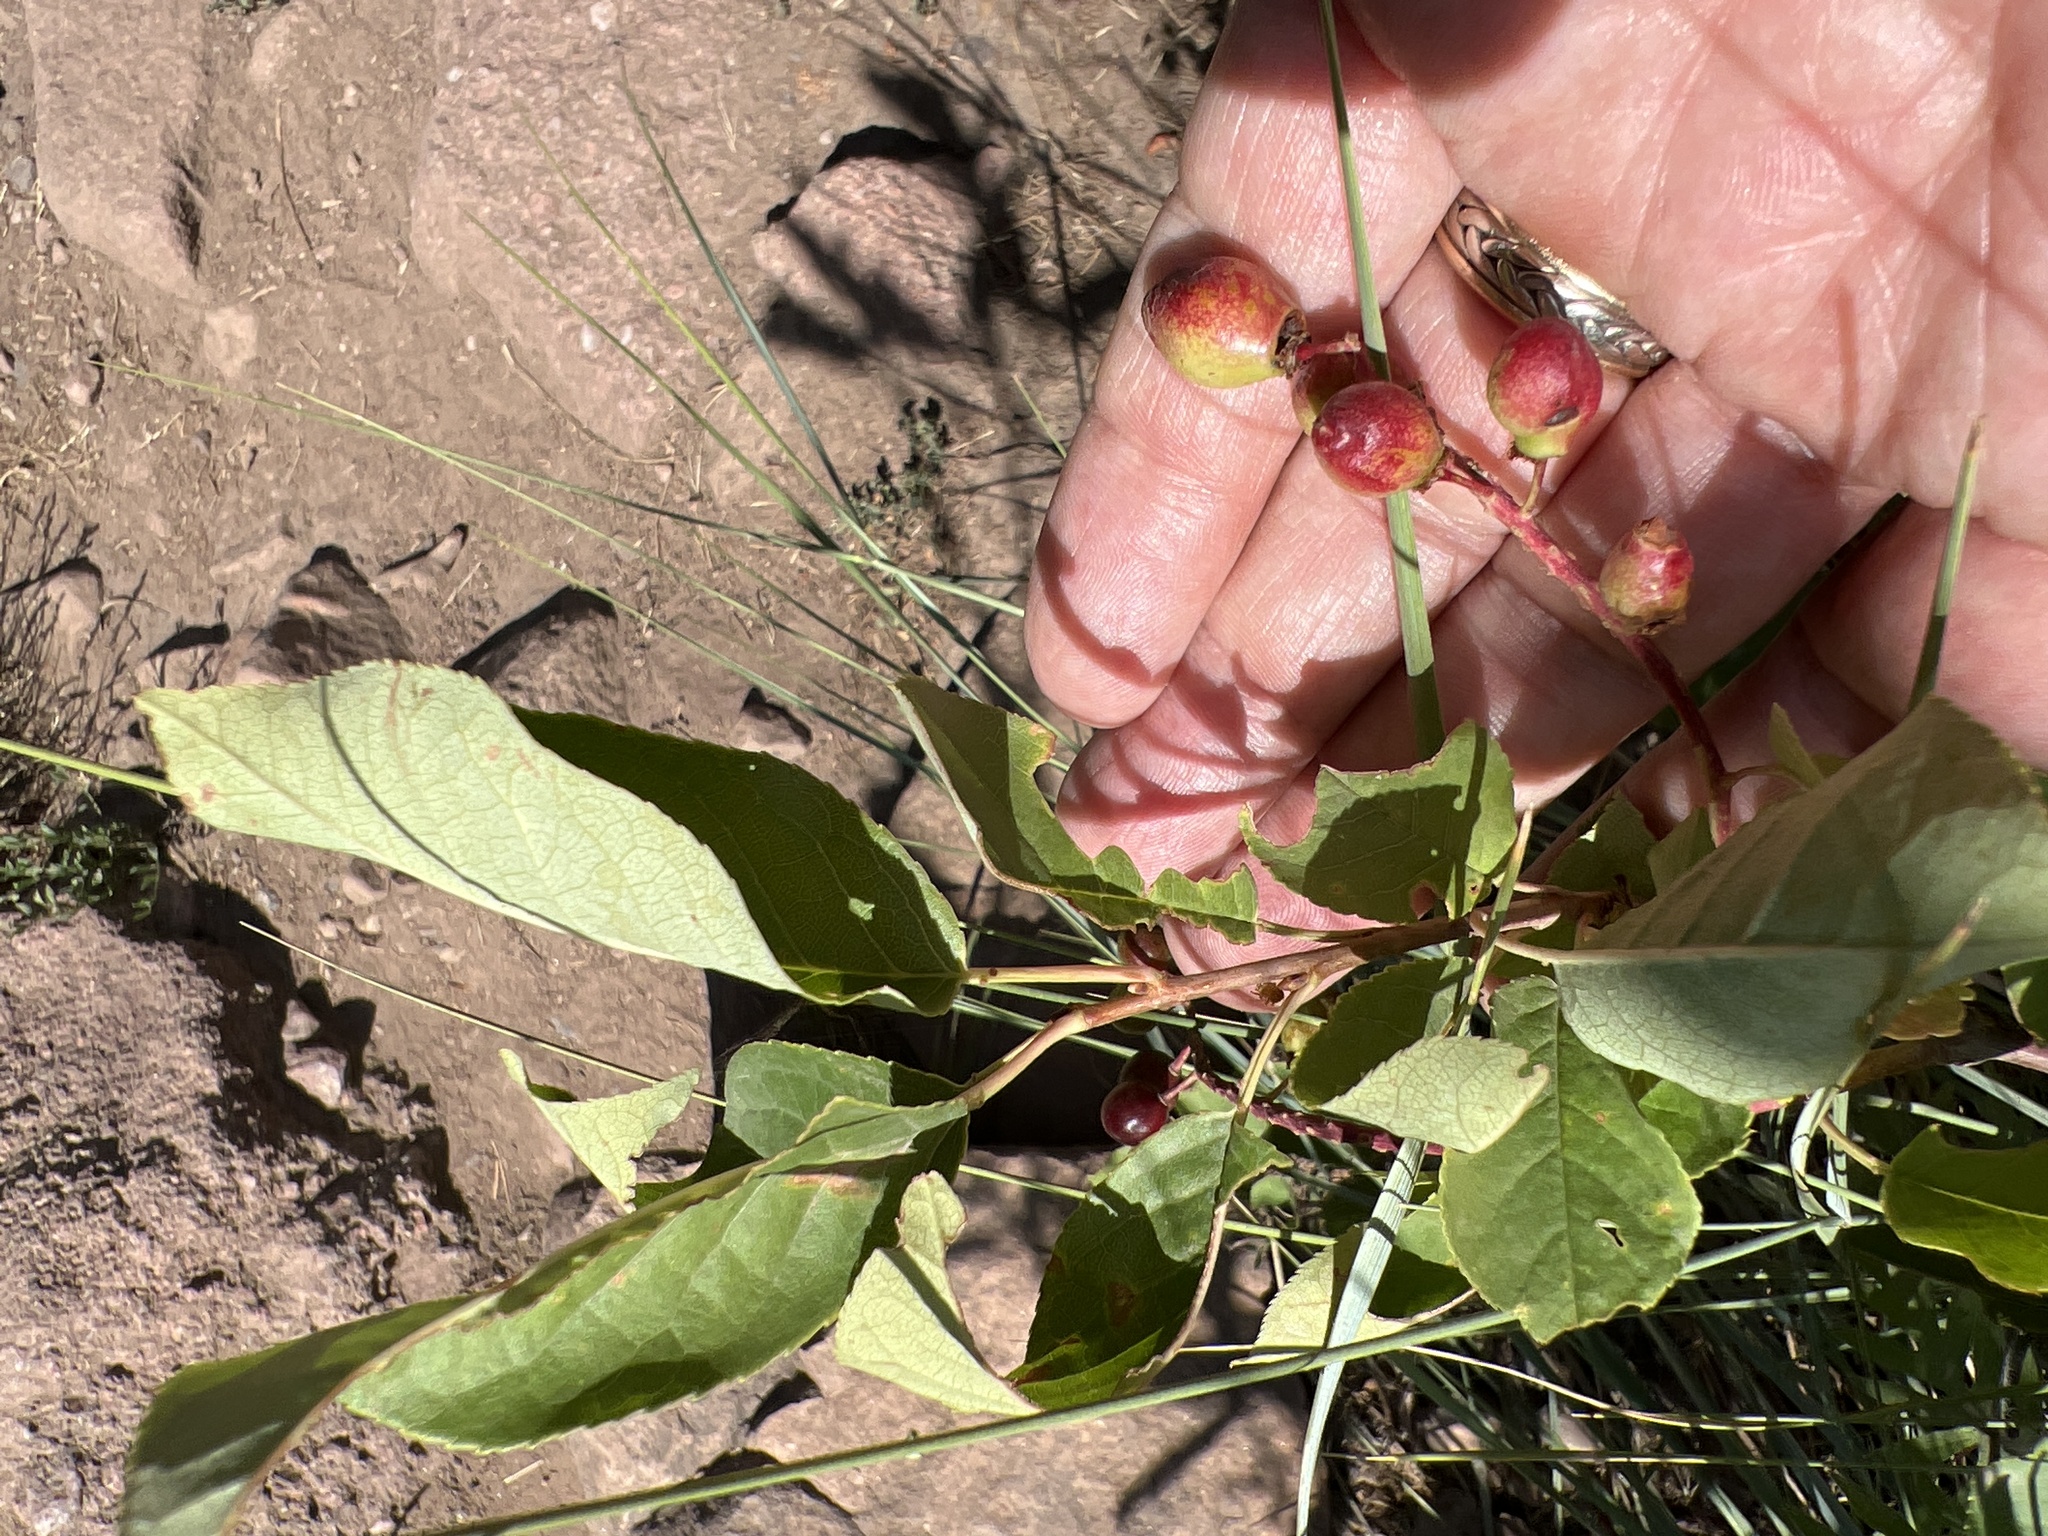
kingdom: Plantae
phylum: Tracheophyta
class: Magnoliopsida
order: Rosales
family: Rosaceae
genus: Prunus
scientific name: Prunus virginiana
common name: Chokecherry
